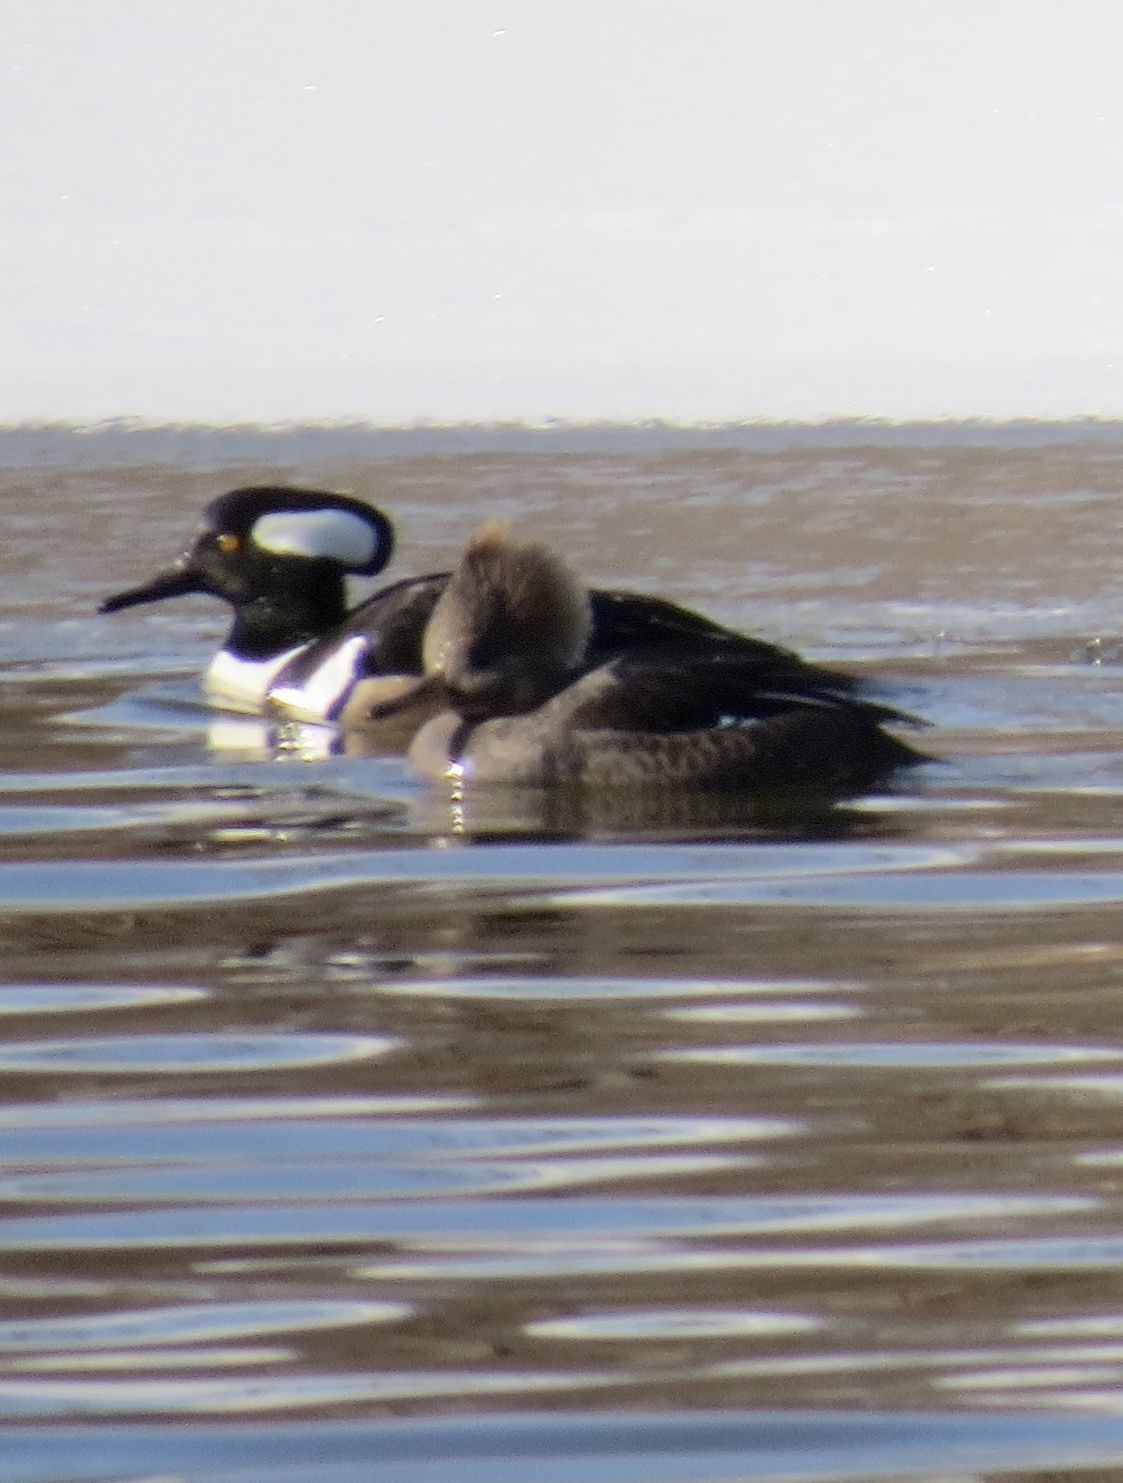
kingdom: Animalia
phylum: Chordata
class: Aves
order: Anseriformes
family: Anatidae
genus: Lophodytes
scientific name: Lophodytes cucullatus
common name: Hooded merganser
